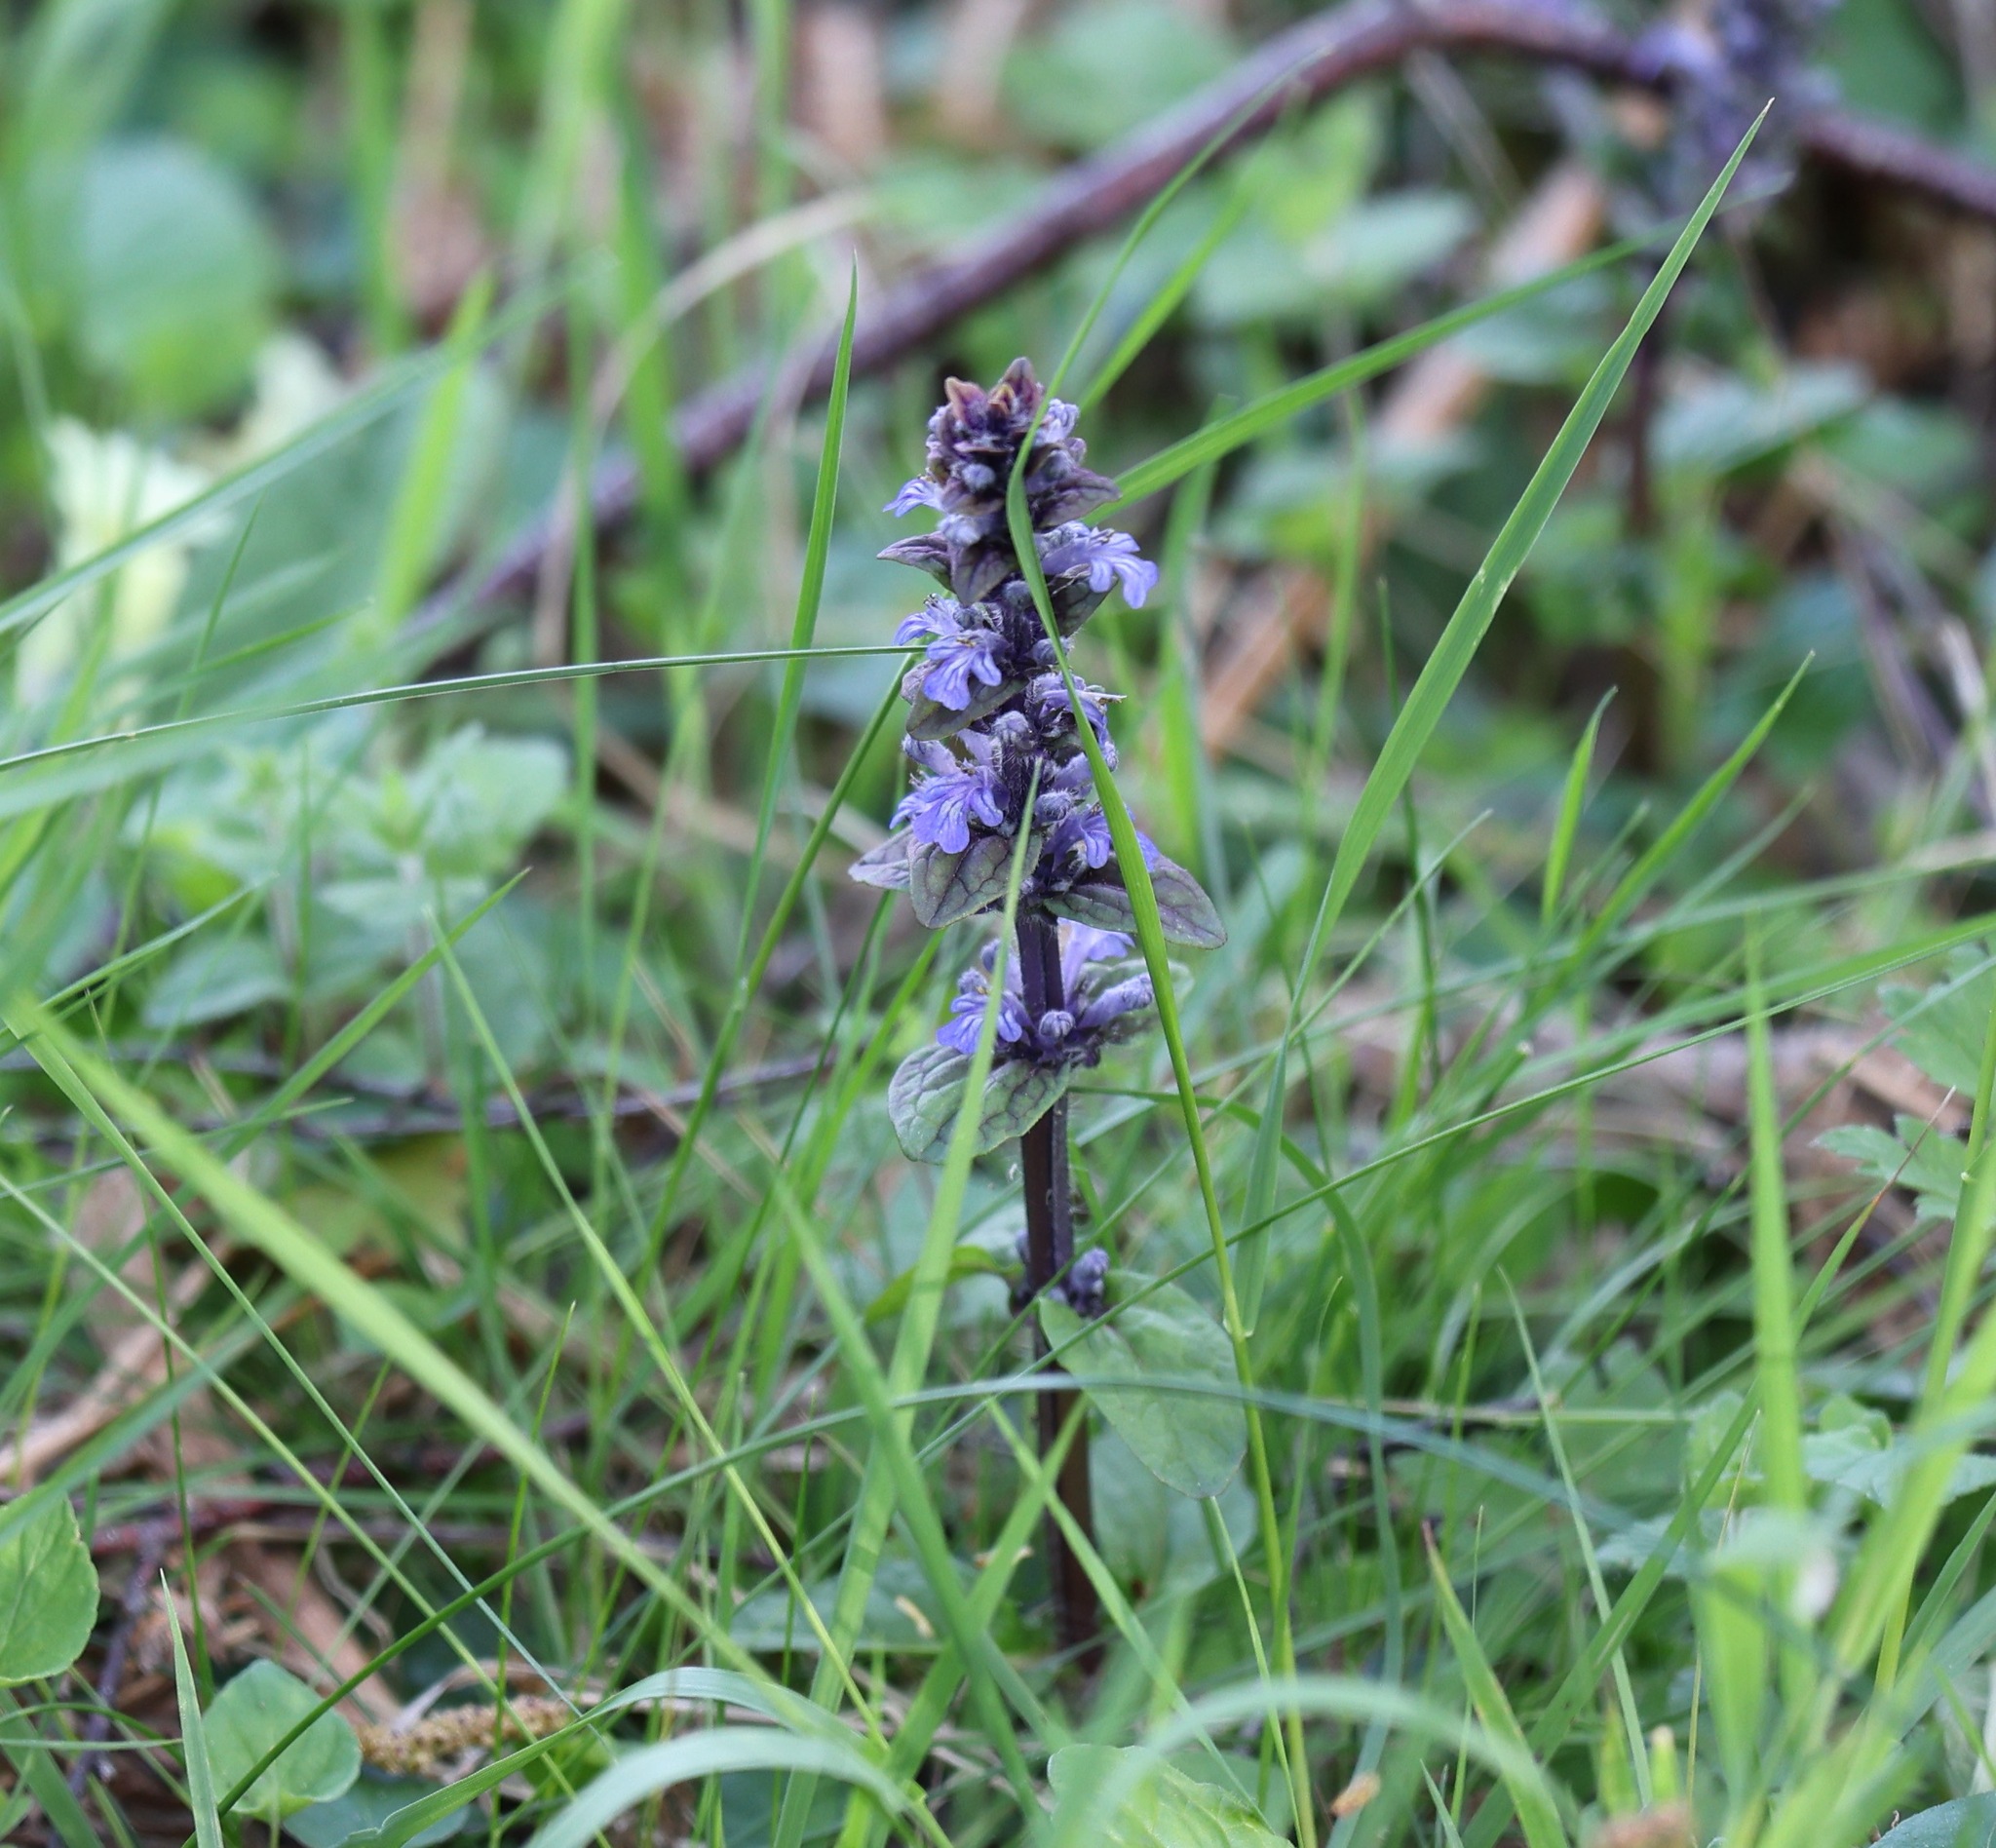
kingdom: Plantae
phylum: Tracheophyta
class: Magnoliopsida
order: Lamiales
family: Lamiaceae
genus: Ajuga
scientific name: Ajuga reptans
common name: Bugle
